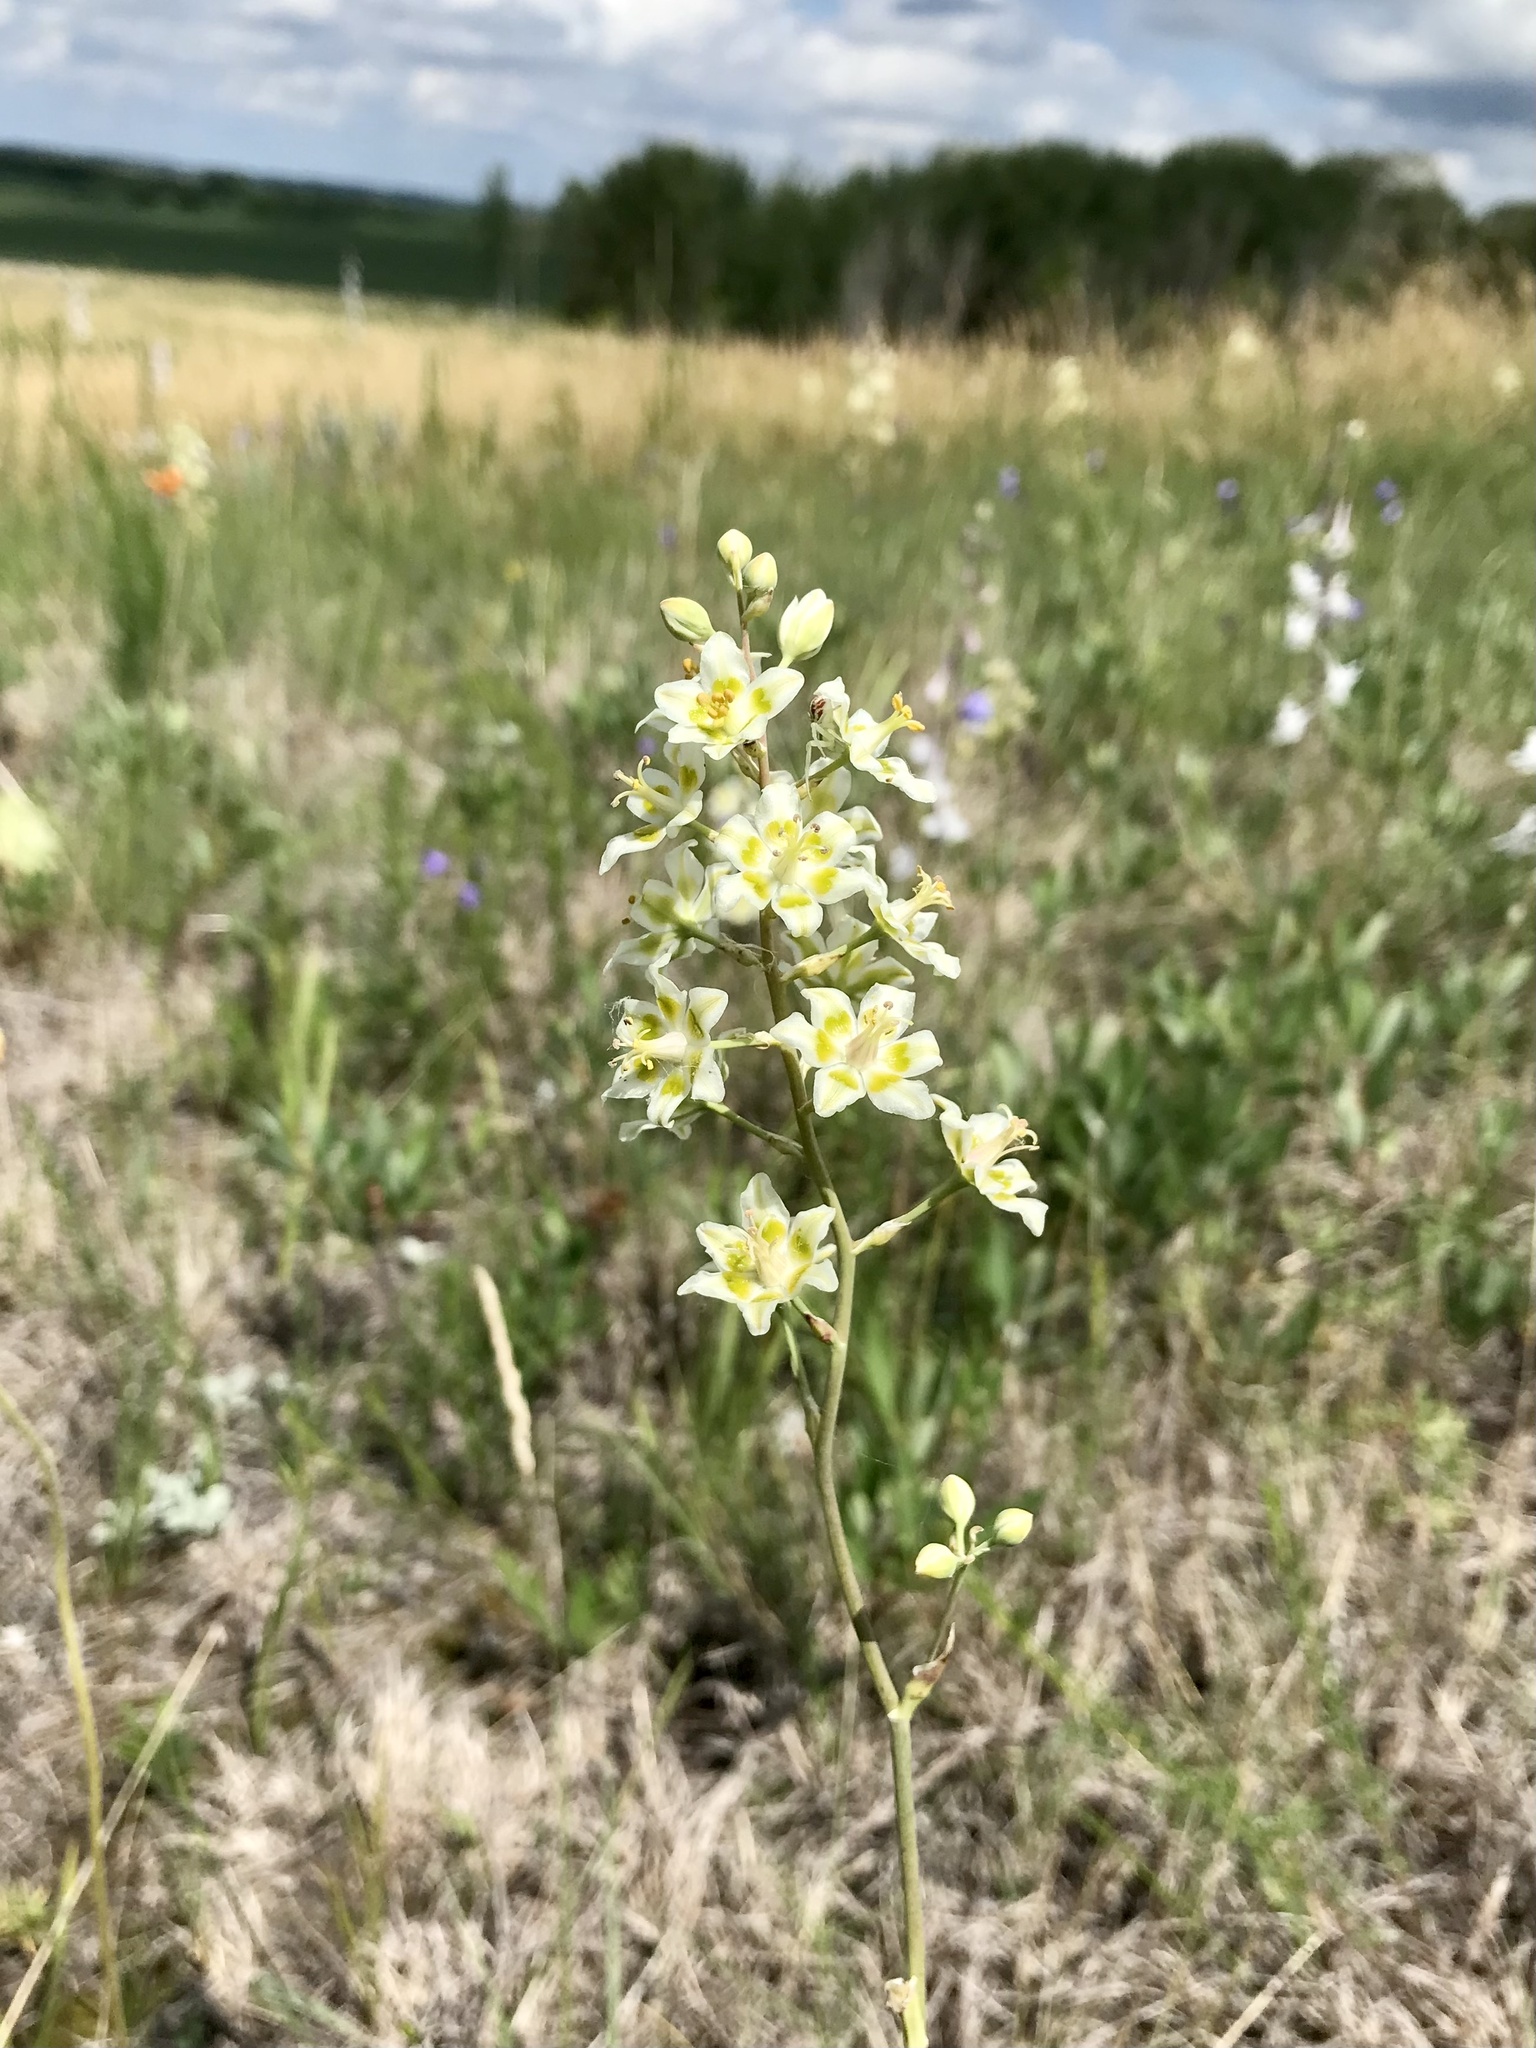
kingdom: Plantae
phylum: Tracheophyta
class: Liliopsida
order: Liliales
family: Melanthiaceae
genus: Anticlea
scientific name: Anticlea elegans
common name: Mountain death camas
